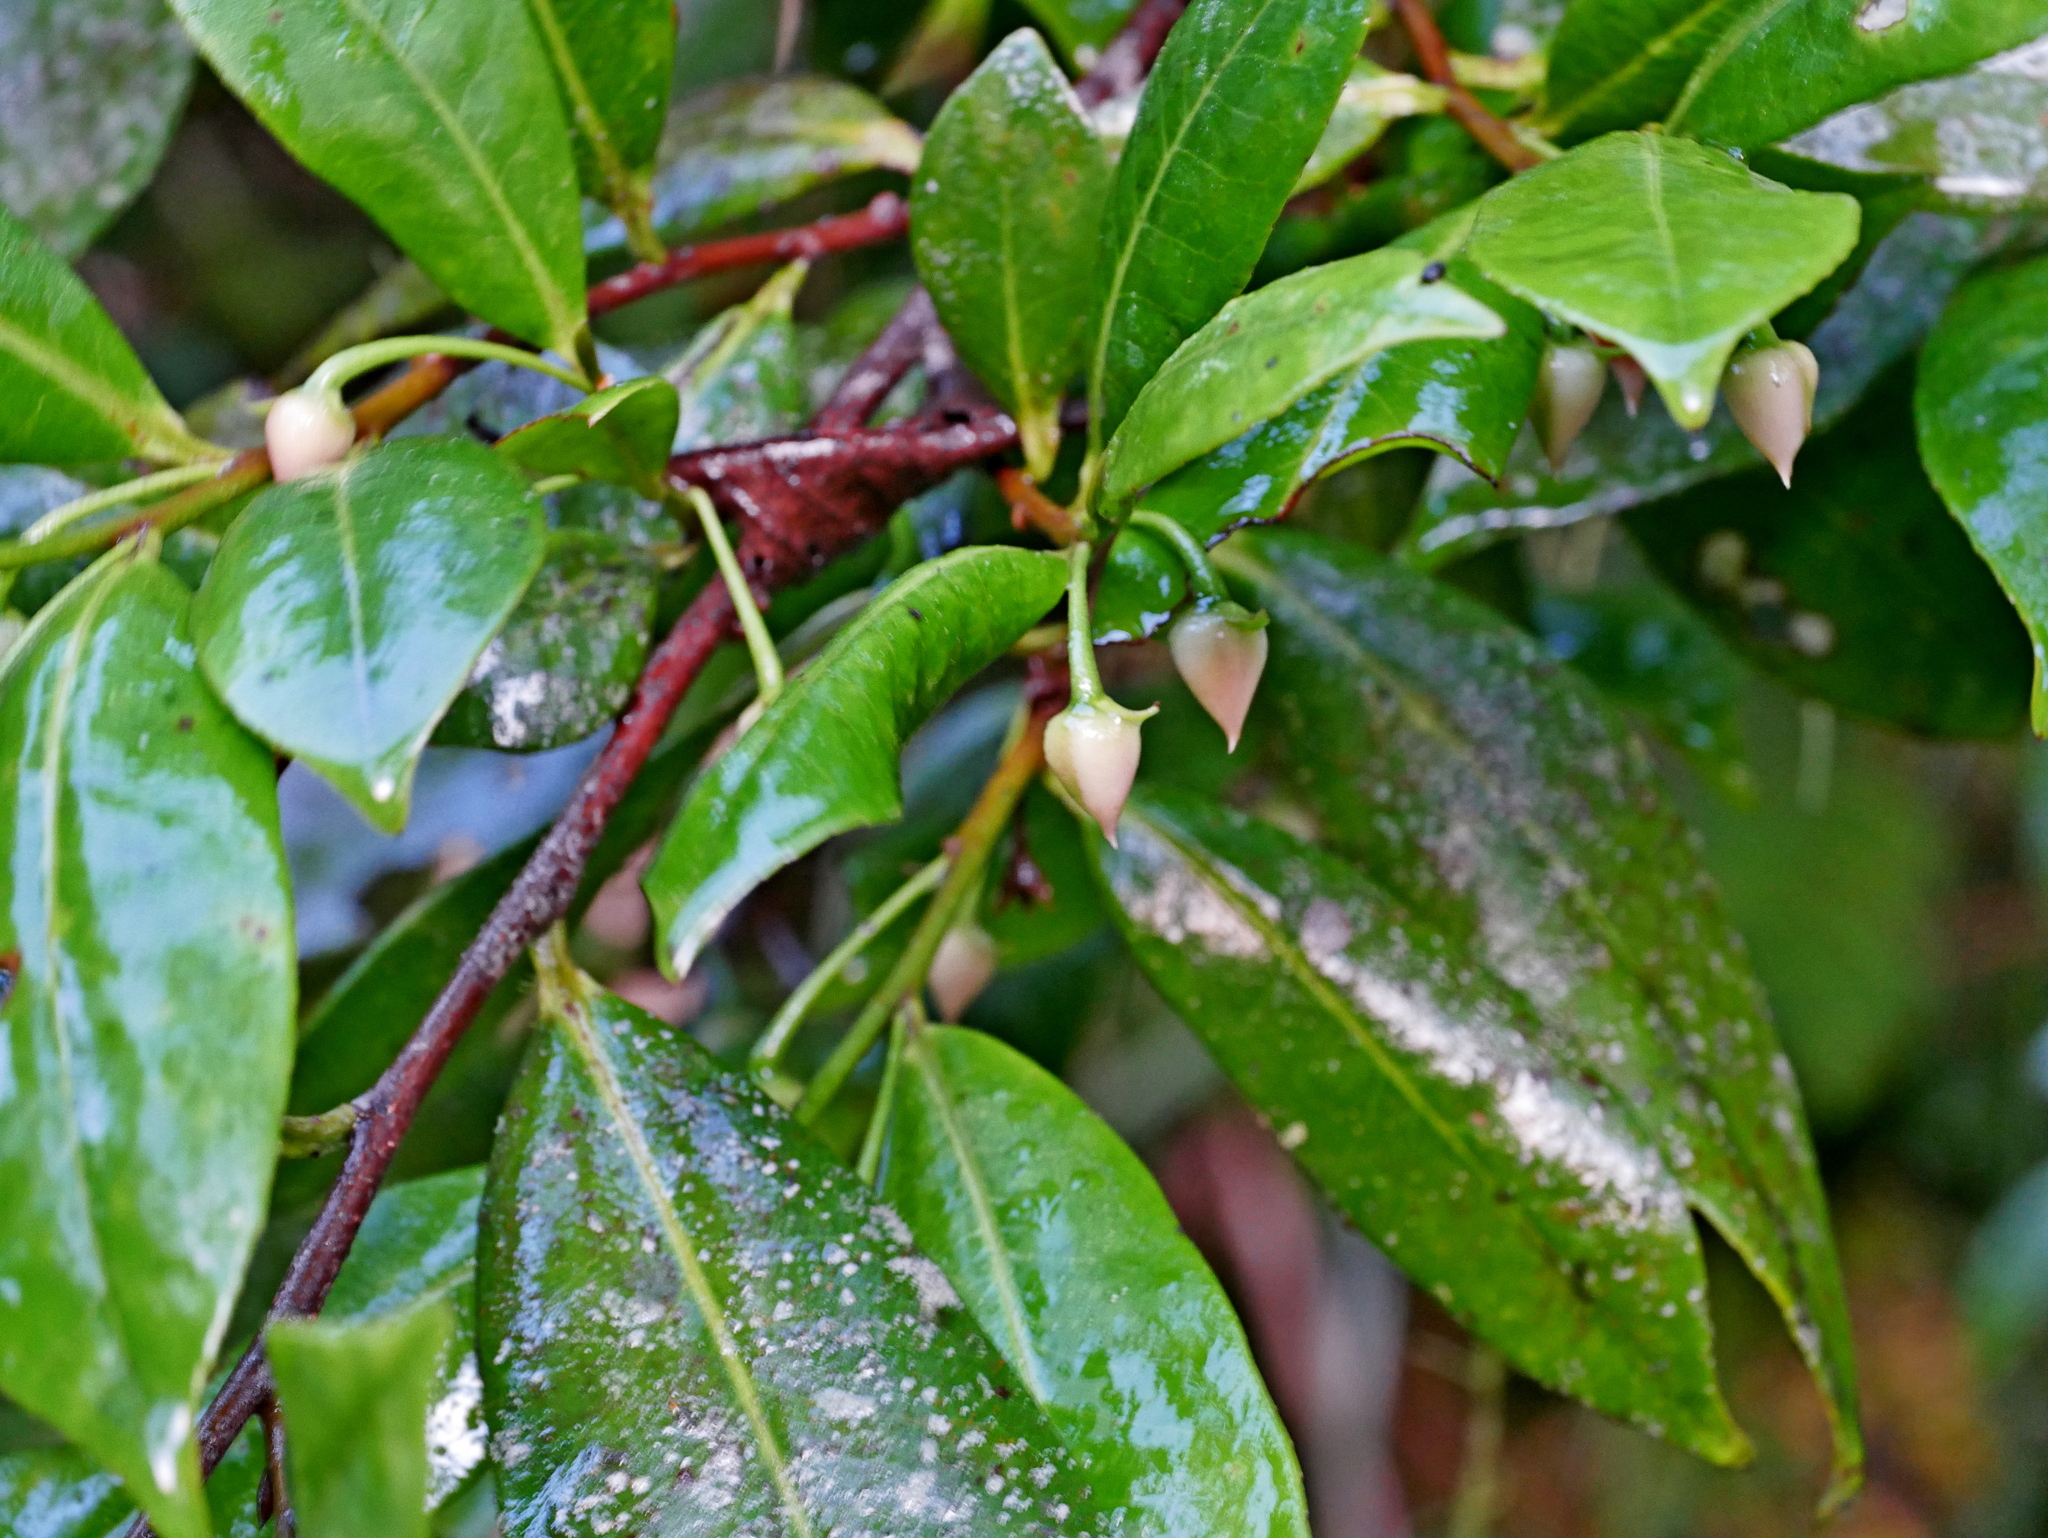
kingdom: Plantae
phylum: Tracheophyta
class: Magnoliopsida
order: Ericales
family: Pentaphylacaceae
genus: Adinandra
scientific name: Adinandra formosana
